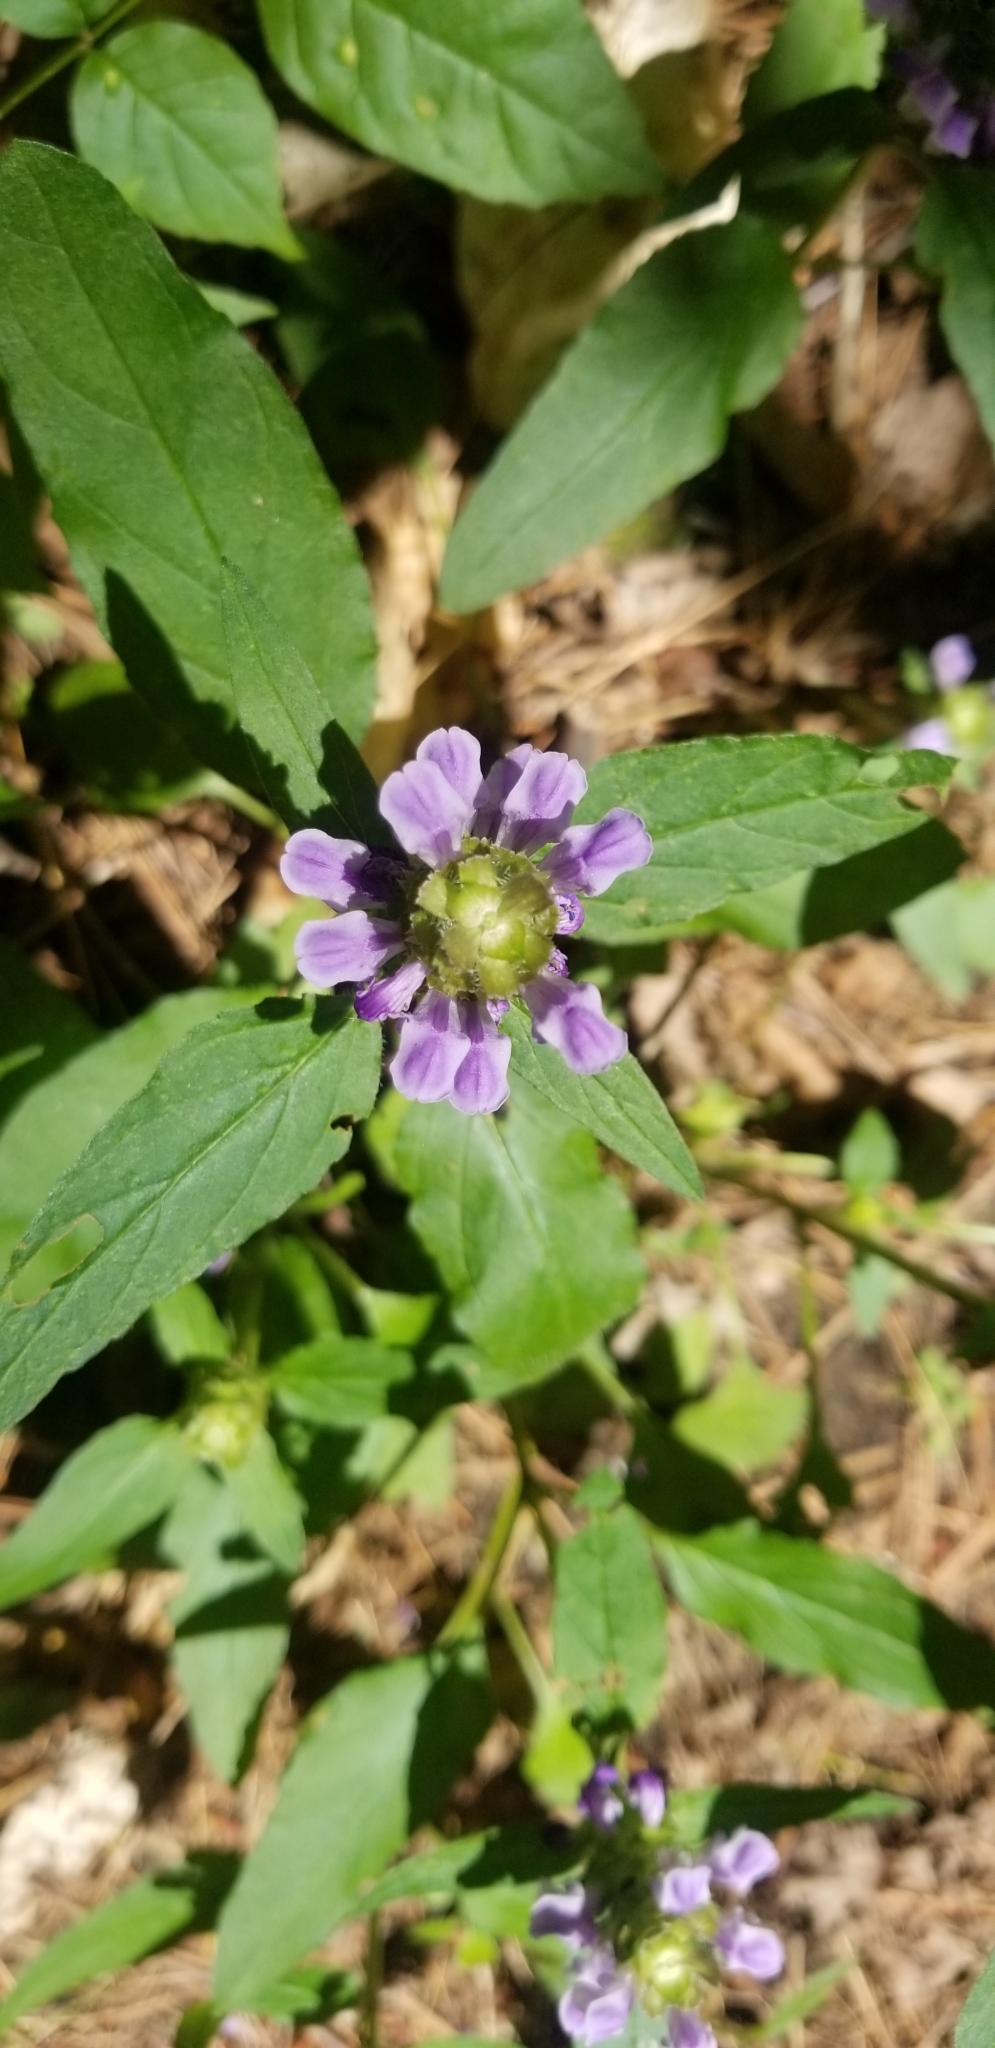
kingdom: Plantae
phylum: Tracheophyta
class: Magnoliopsida
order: Lamiales
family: Lamiaceae
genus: Prunella
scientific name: Prunella vulgaris
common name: Heal-all
